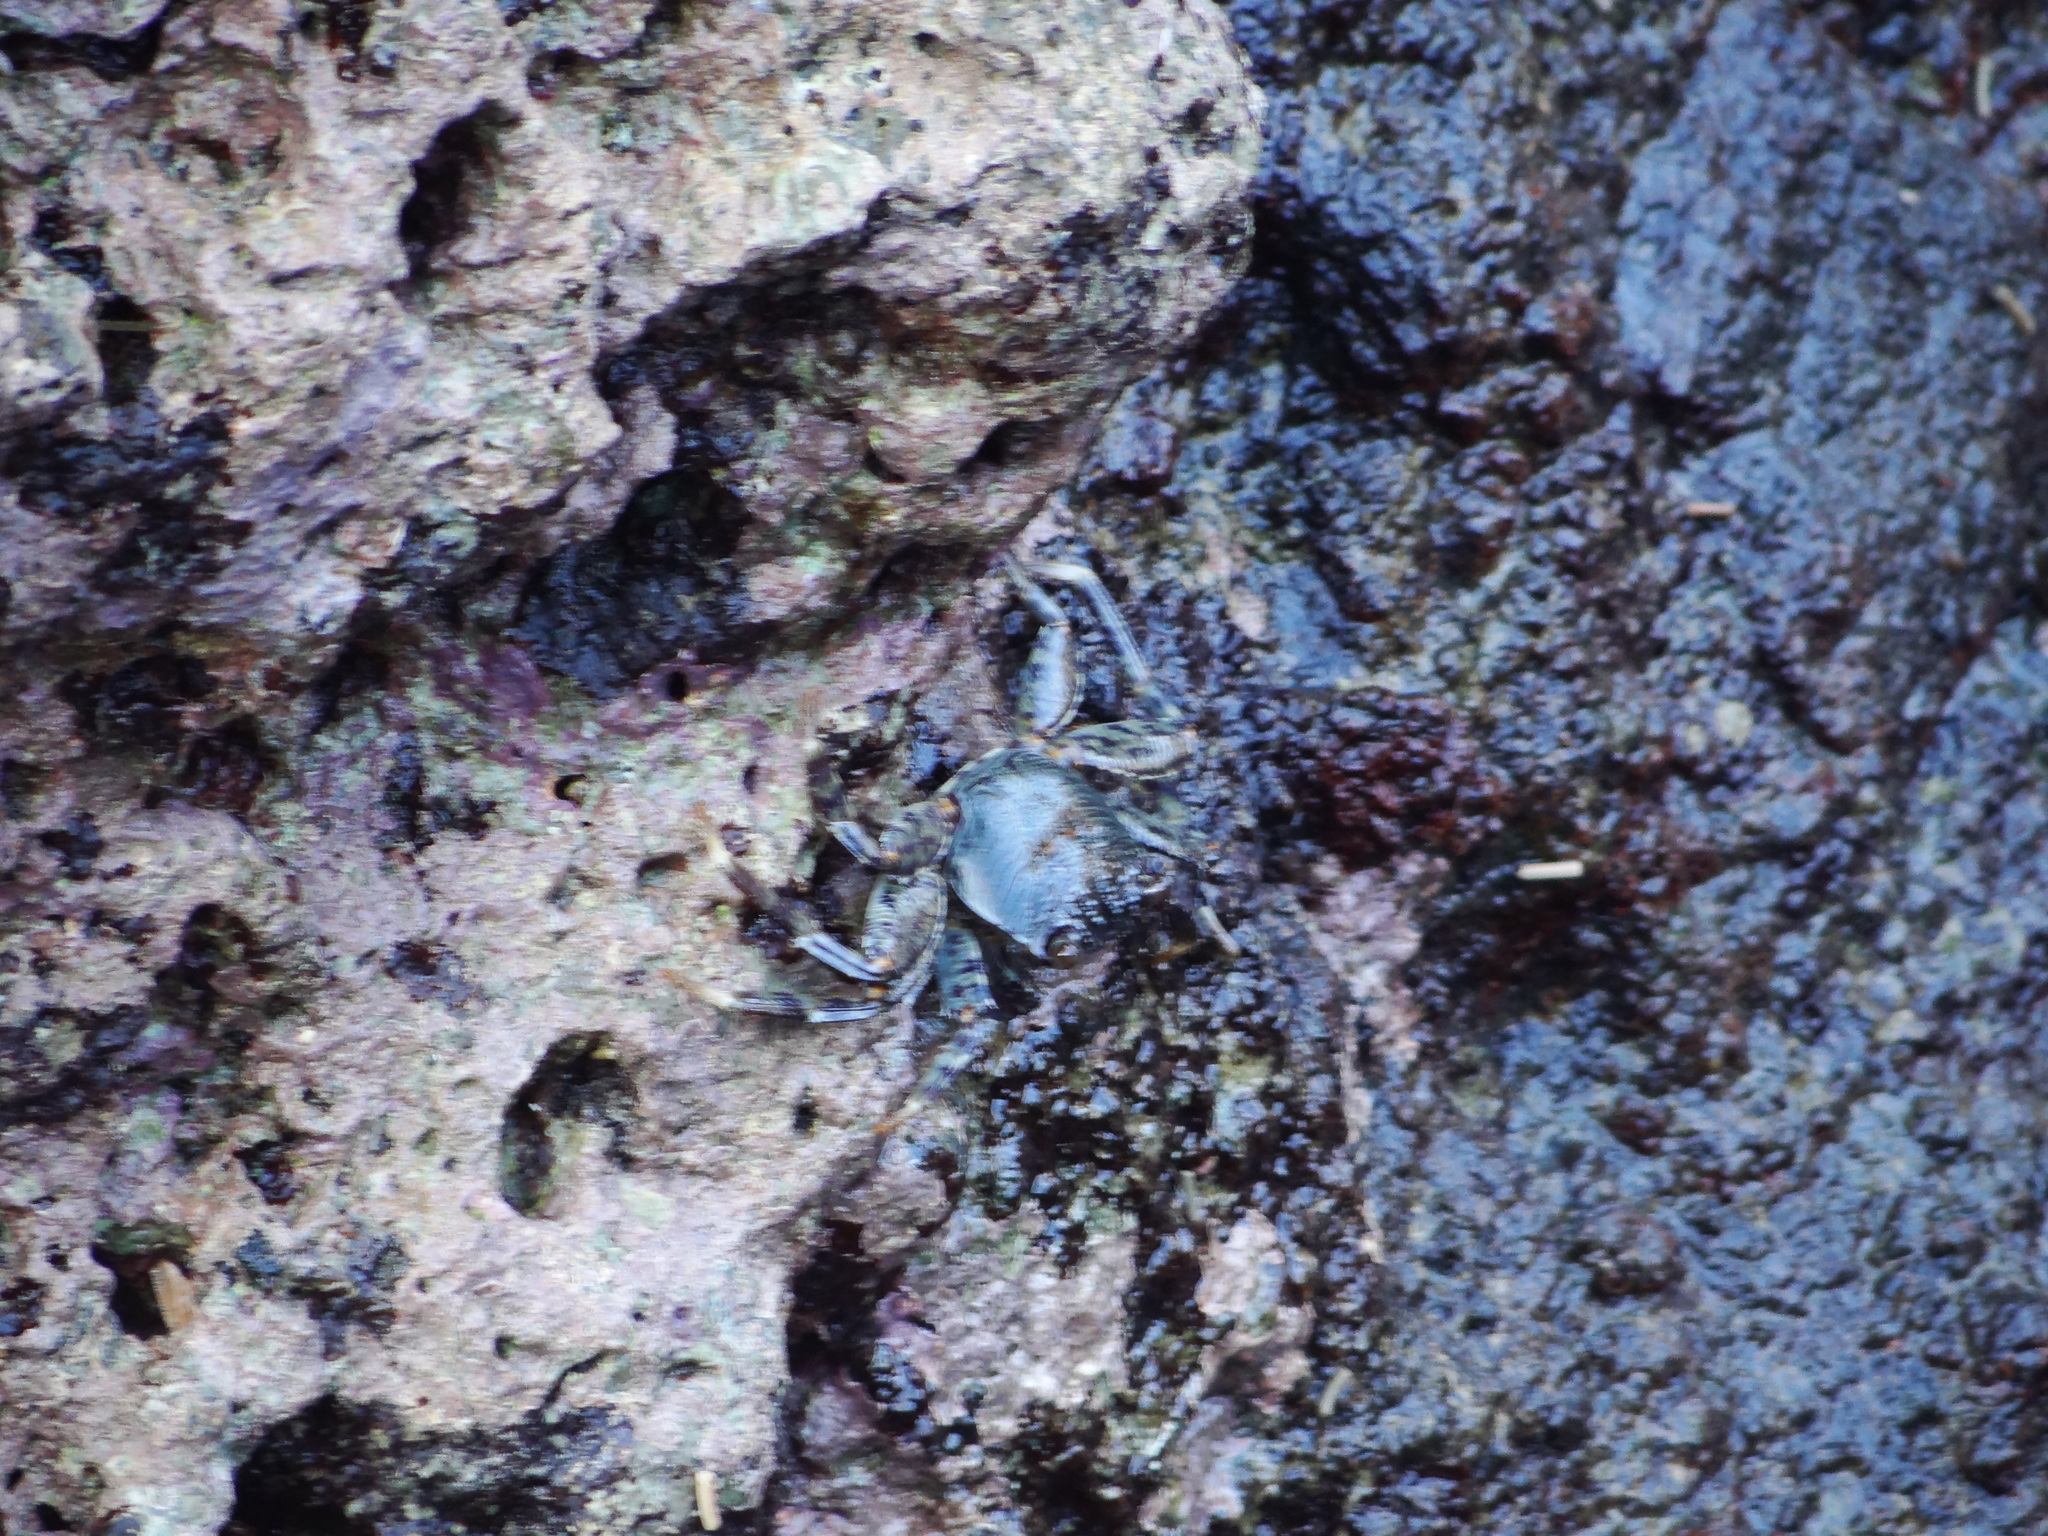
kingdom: Animalia
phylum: Arthropoda
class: Malacostraca
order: Decapoda
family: Grapsidae
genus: Grapsus
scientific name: Grapsus albolineatus
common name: Mottled lightfoot crab
